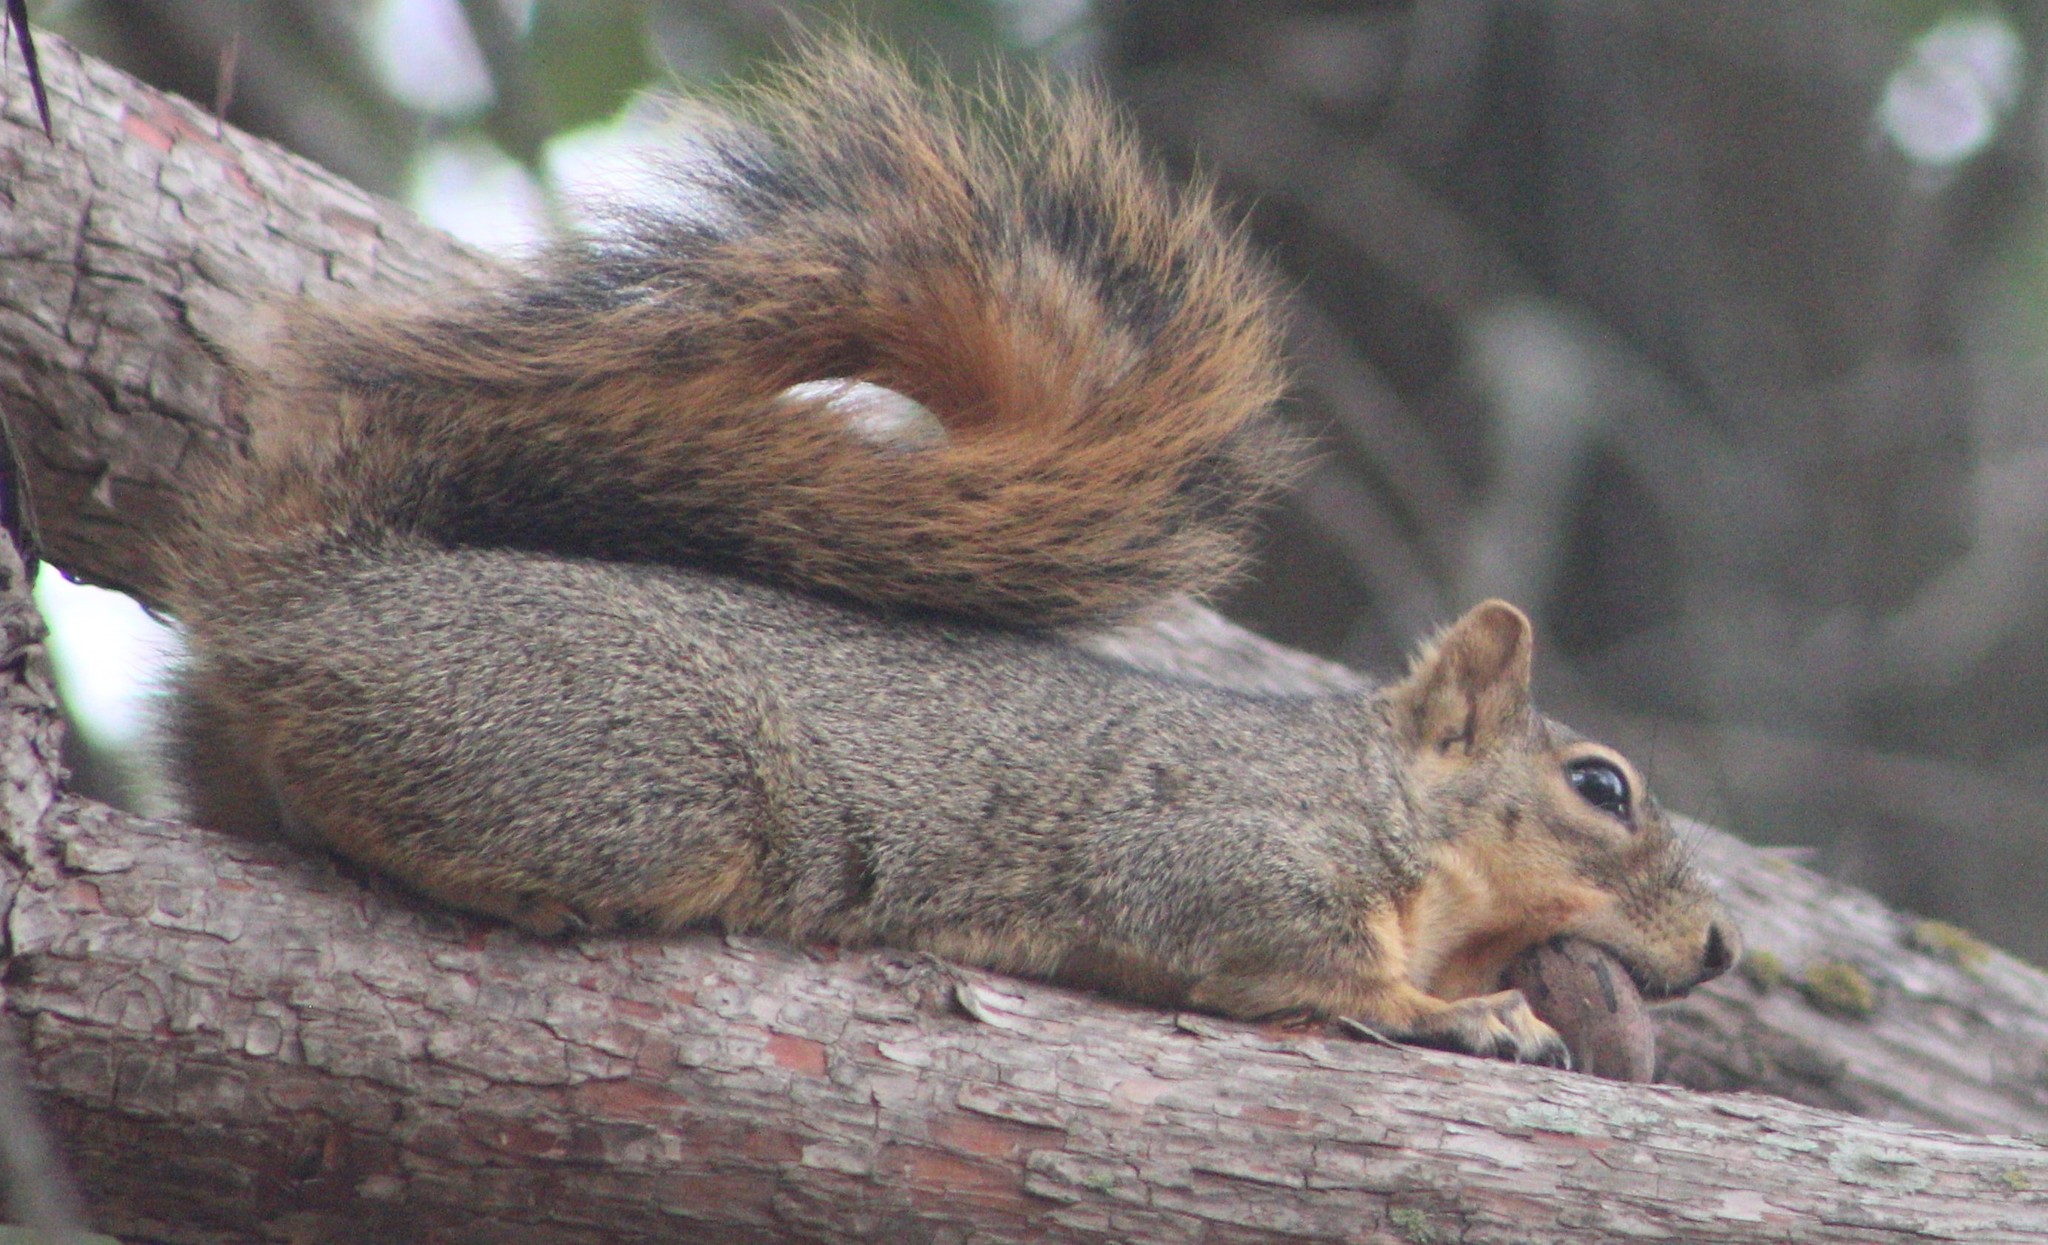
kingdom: Animalia
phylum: Chordata
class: Mammalia
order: Rodentia
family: Sciuridae
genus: Sciurus
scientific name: Sciurus niger
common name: Fox squirrel
